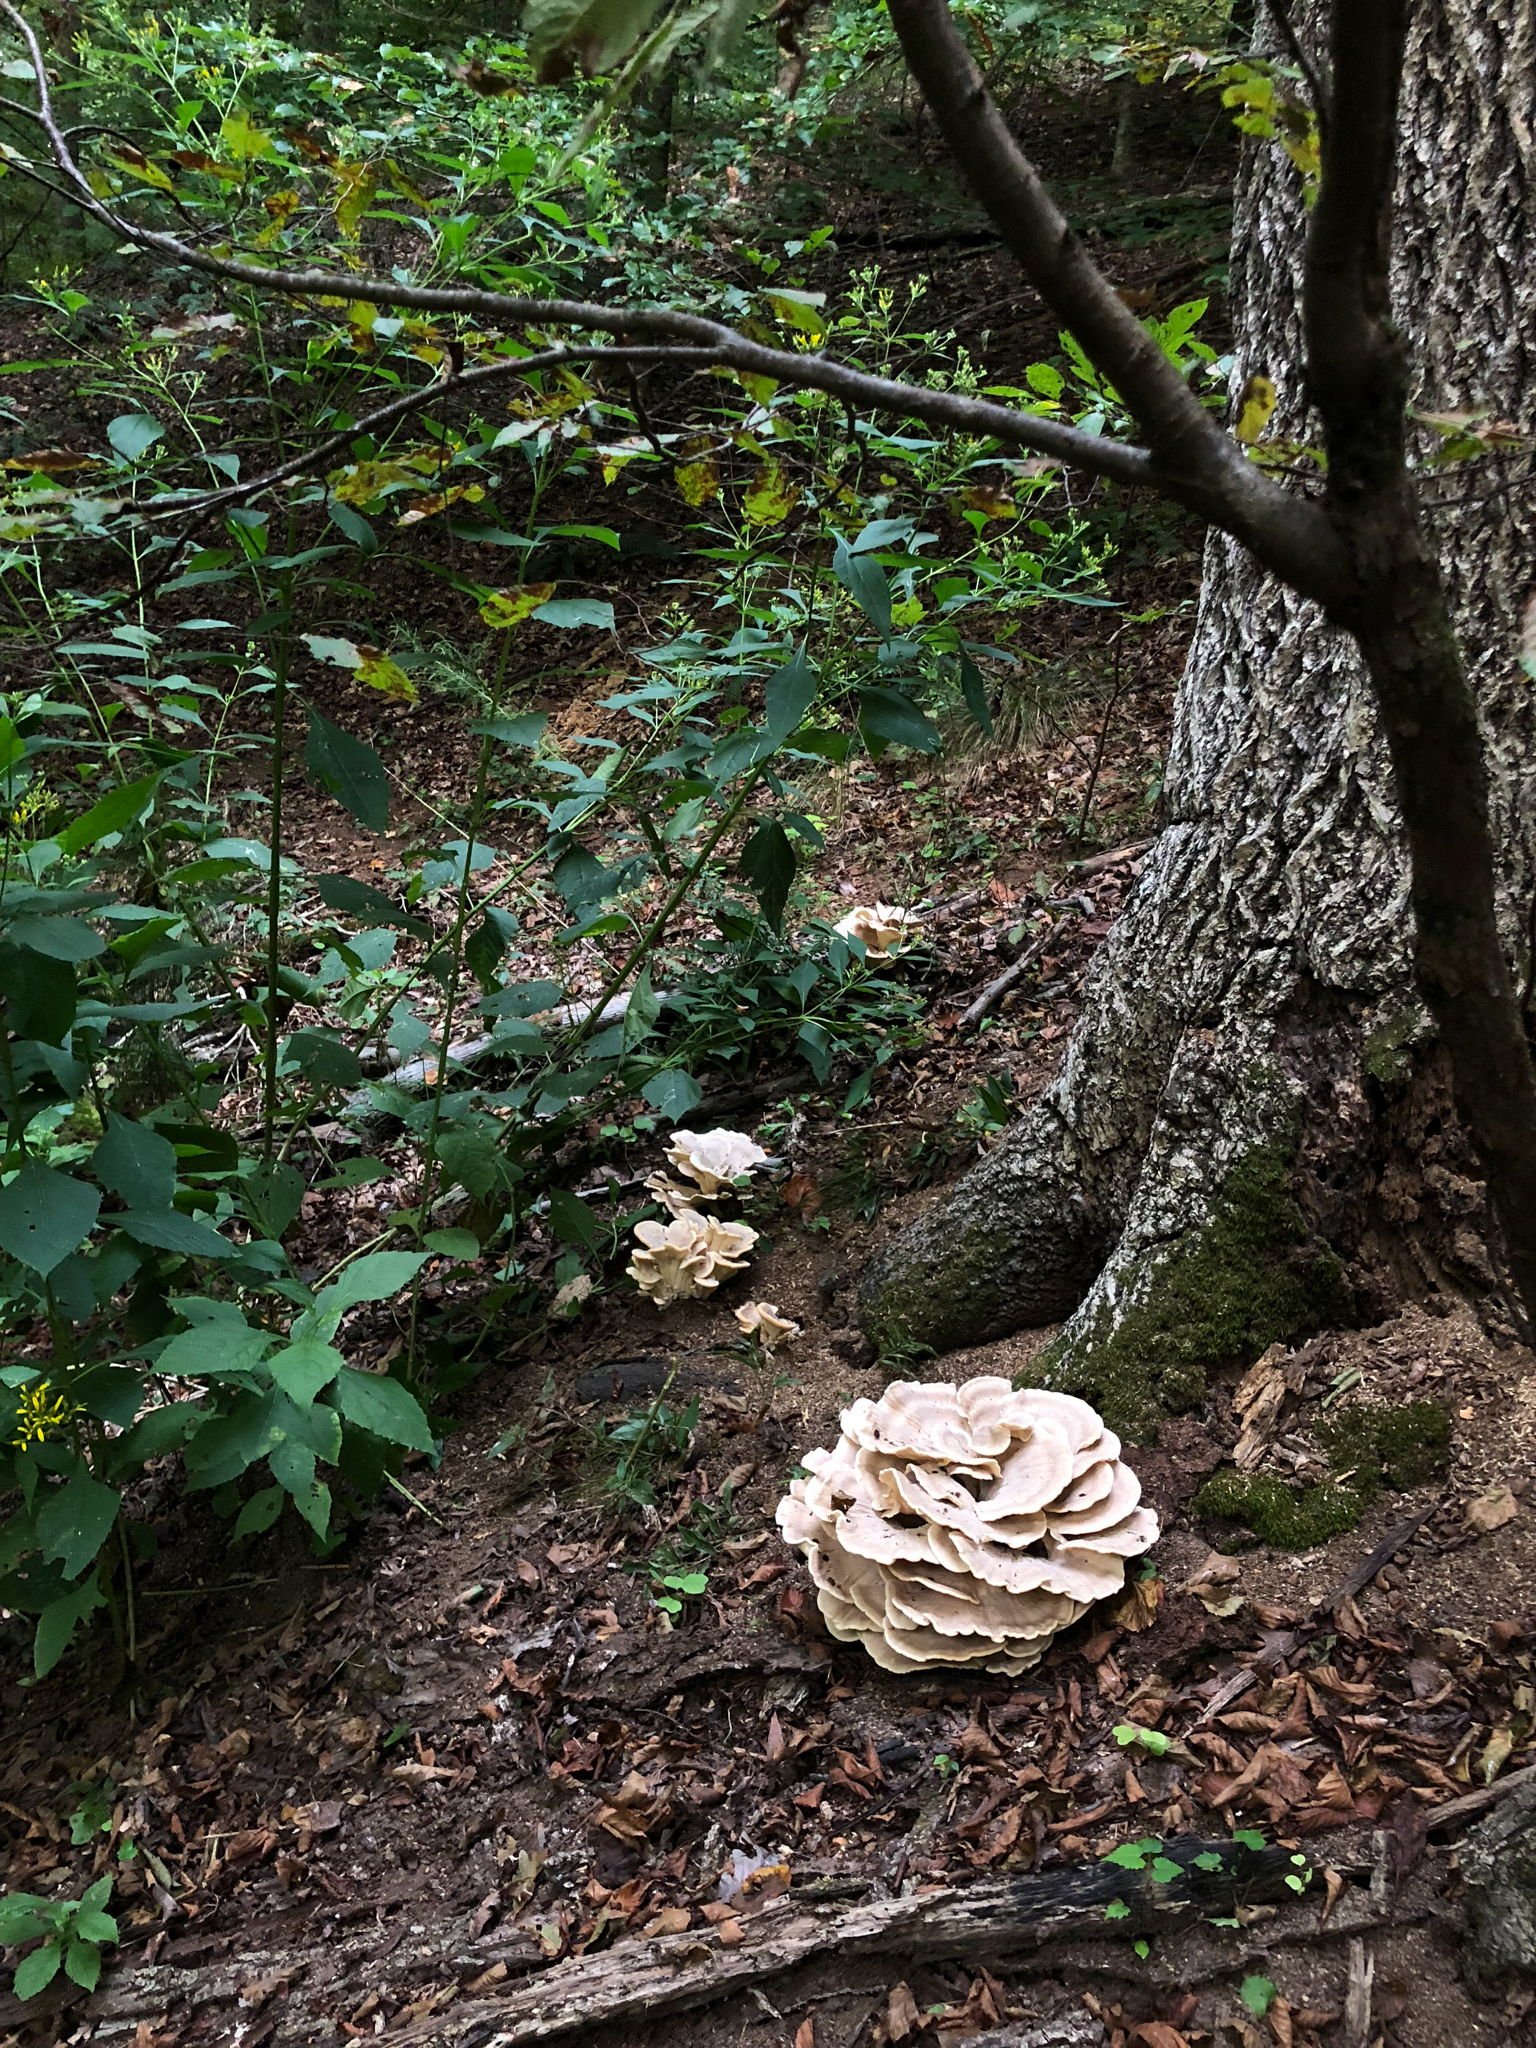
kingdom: Fungi
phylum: Basidiomycota
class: Agaricomycetes
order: Polyporales
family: Meripilaceae
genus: Meripilus
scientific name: Meripilus sumstinei
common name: Black-staining polypore
